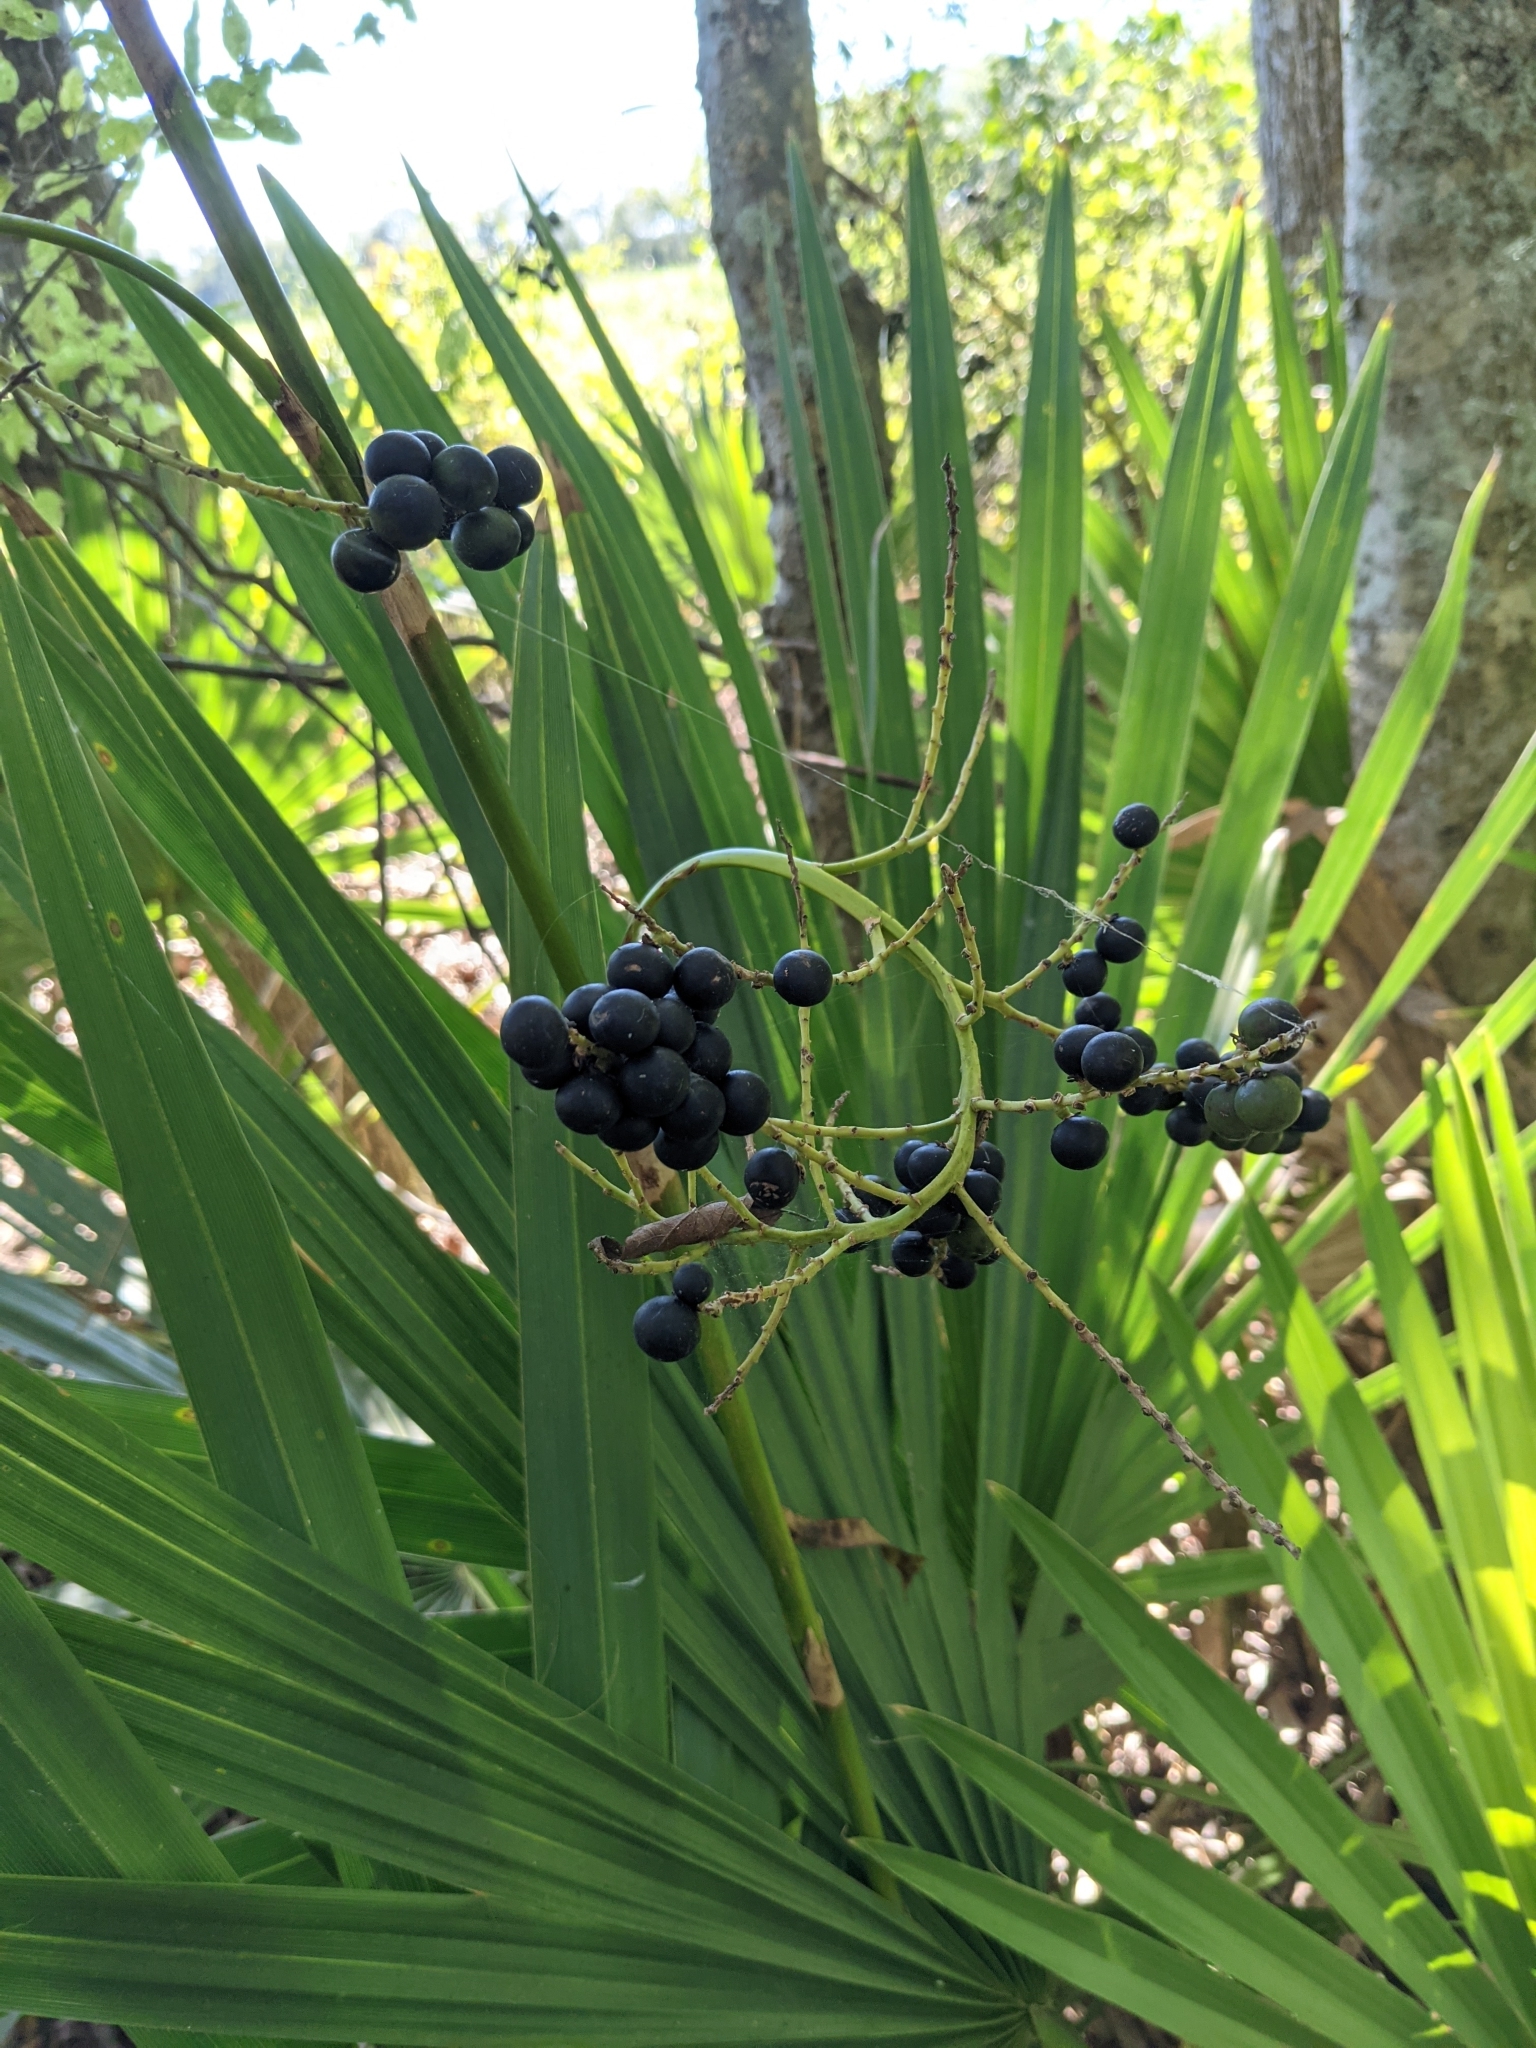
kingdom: Plantae
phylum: Tracheophyta
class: Liliopsida
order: Arecales
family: Arecaceae
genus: Sabal
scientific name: Sabal minor
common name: Dwarf palmetto
